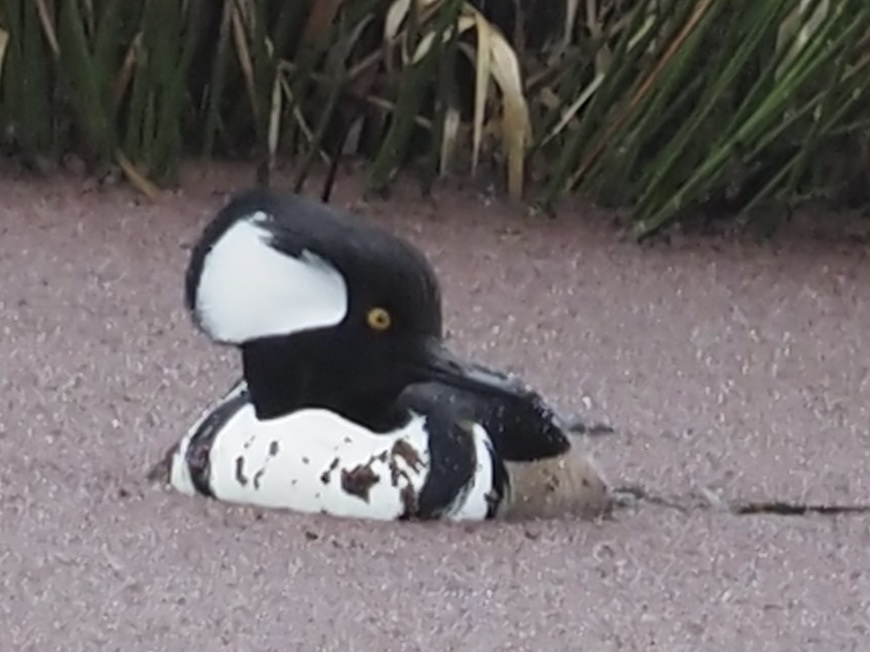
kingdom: Animalia
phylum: Chordata
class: Aves
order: Anseriformes
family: Anatidae
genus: Lophodytes
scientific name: Lophodytes cucullatus
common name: Hooded merganser
